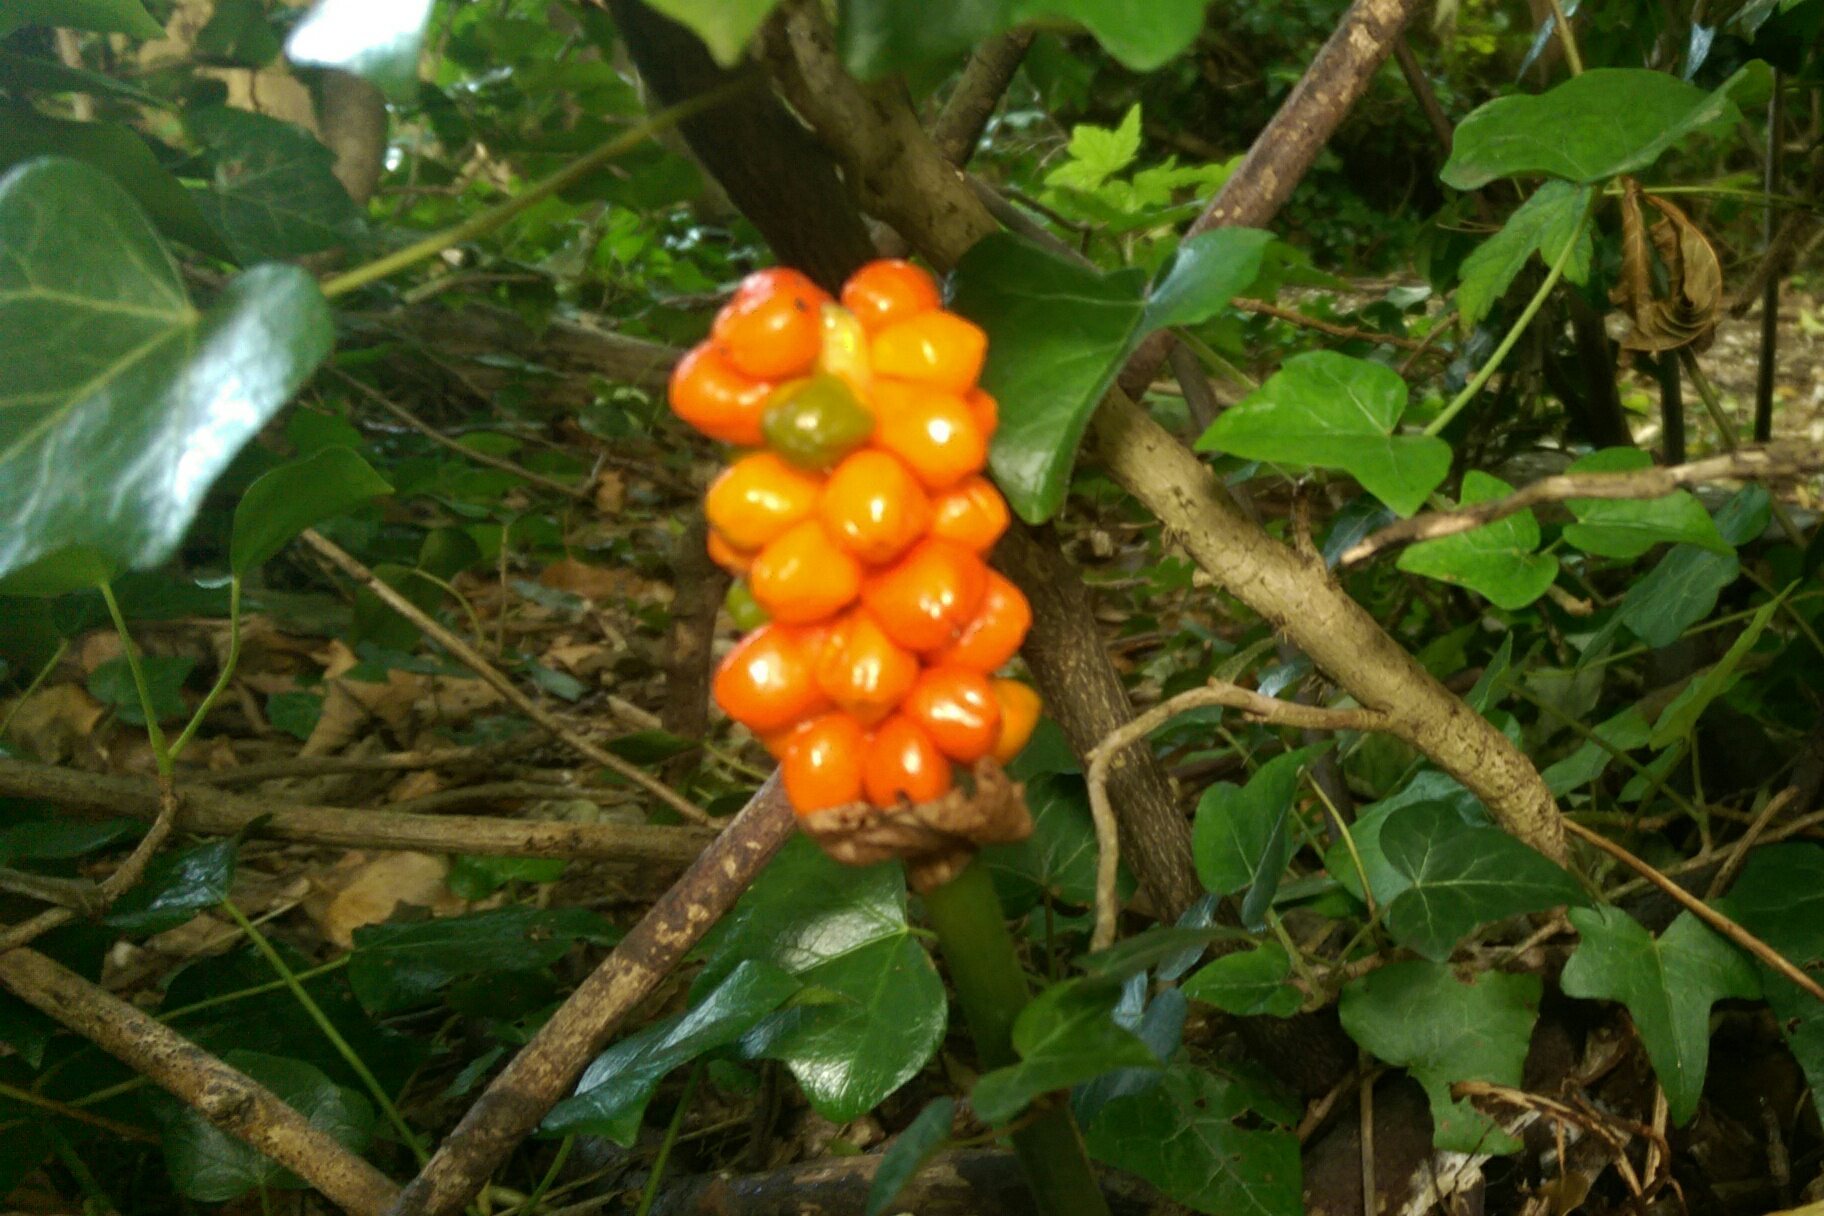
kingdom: Plantae
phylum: Tracheophyta
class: Liliopsida
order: Alismatales
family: Araceae
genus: Arum
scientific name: Arum maculatum
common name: Lords-and-ladies
